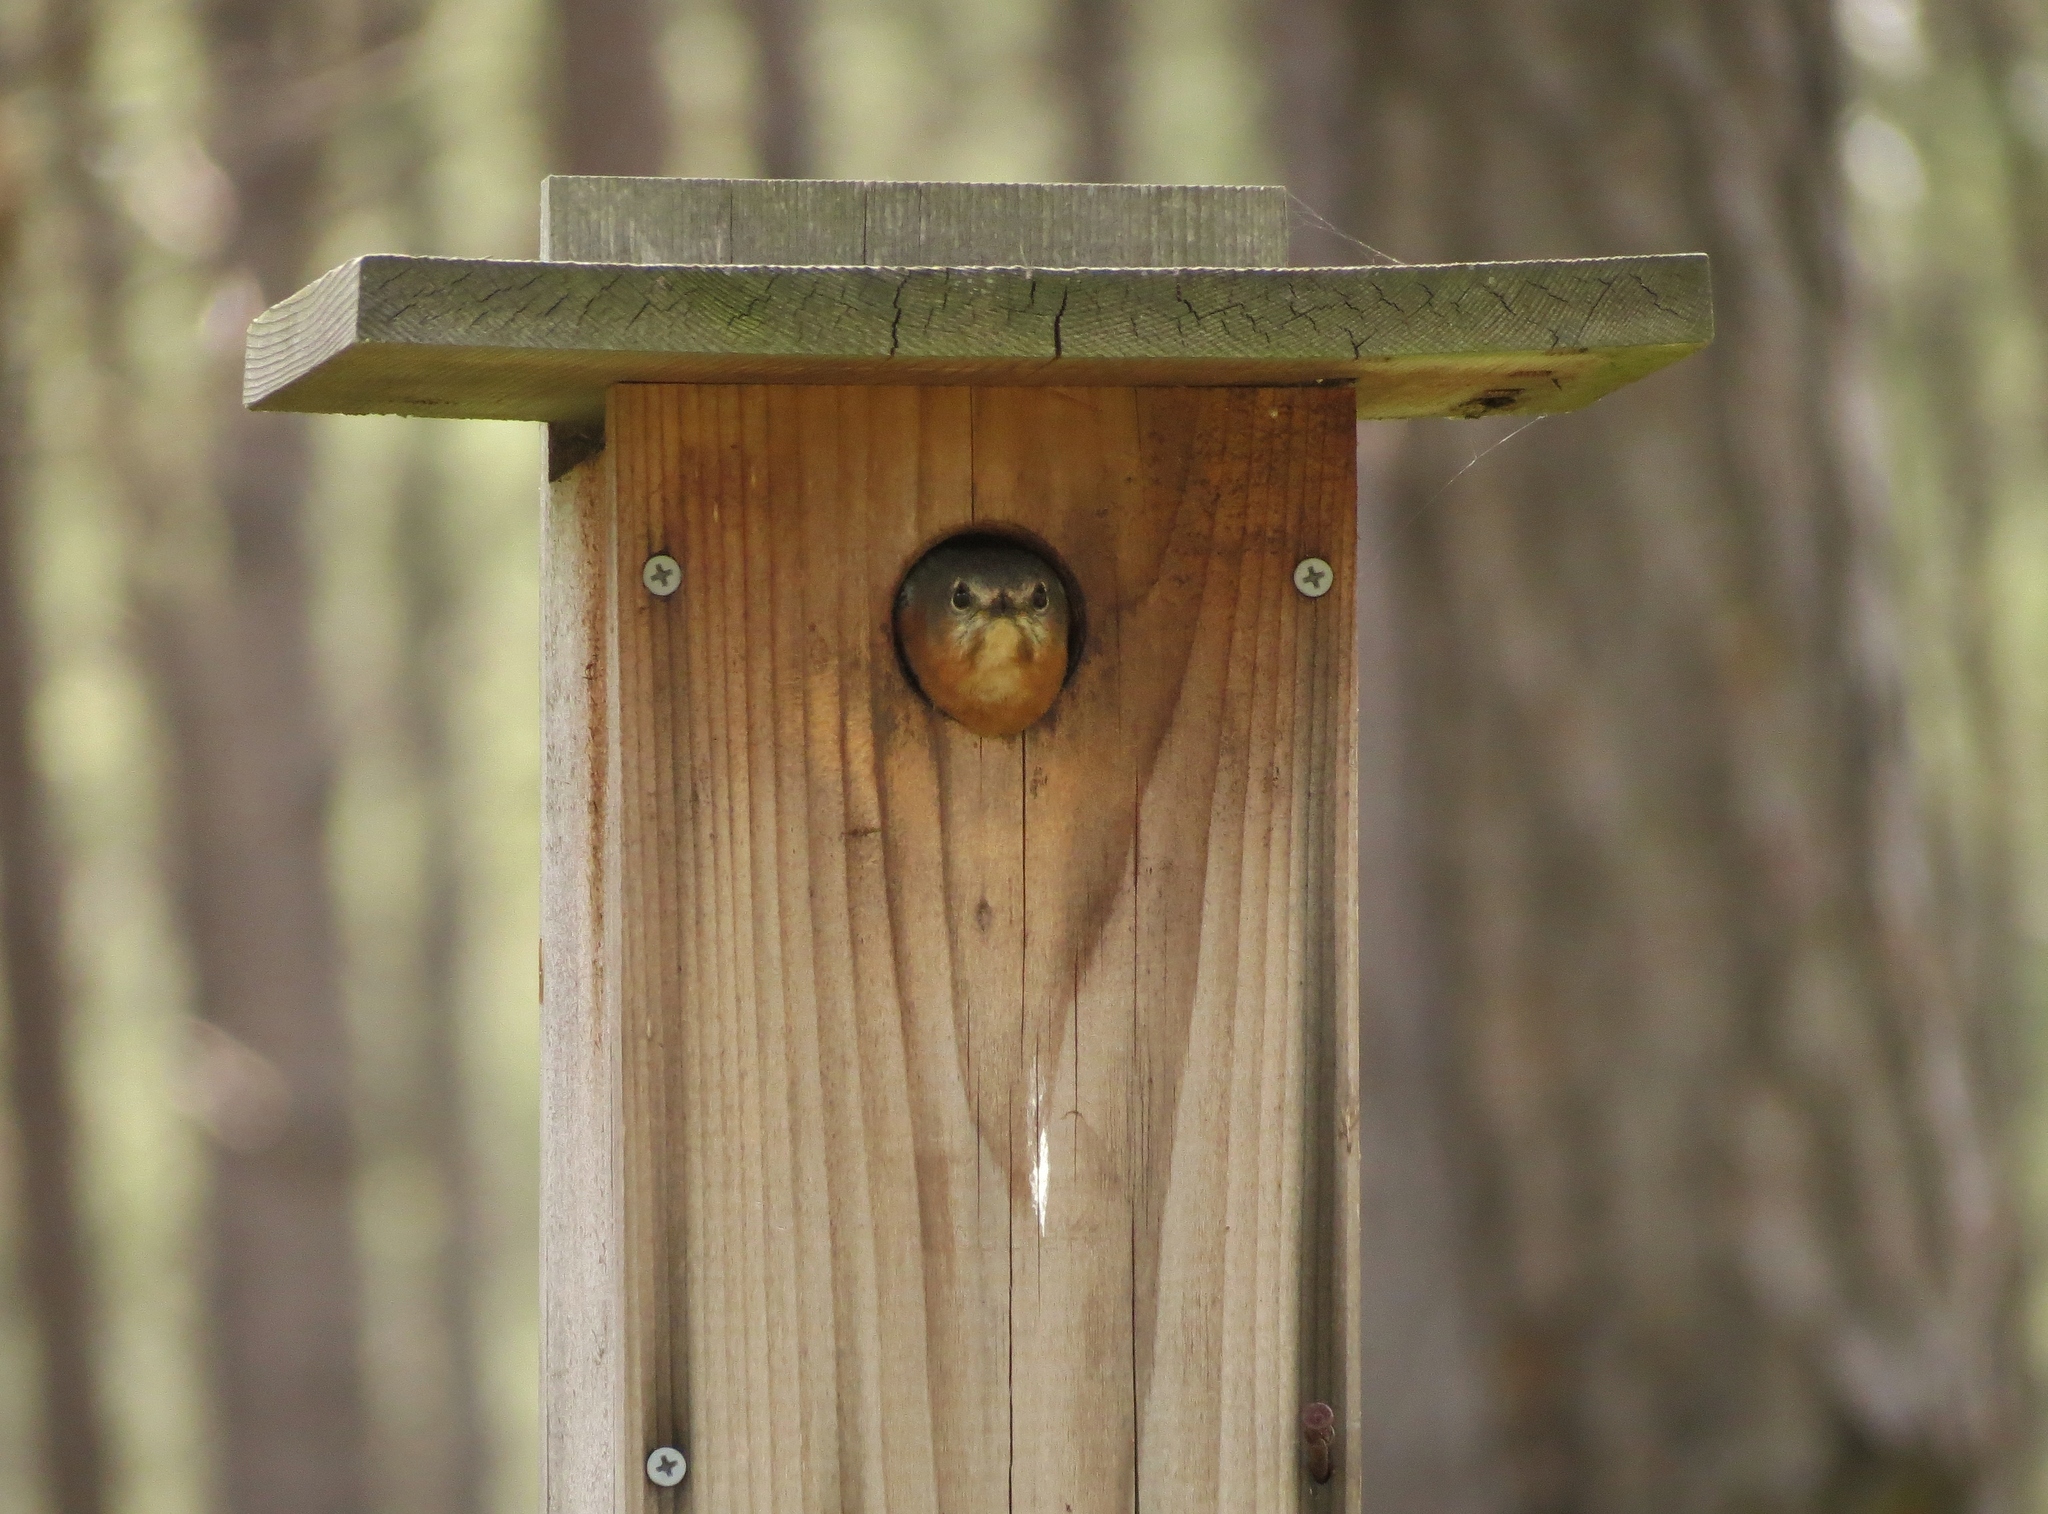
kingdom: Animalia
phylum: Chordata
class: Aves
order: Passeriformes
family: Turdidae
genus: Sialia
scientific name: Sialia sialis
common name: Eastern bluebird
